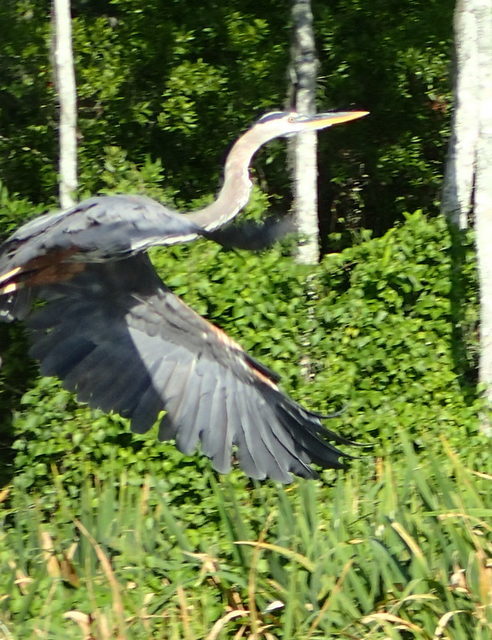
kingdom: Animalia
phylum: Chordata
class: Aves
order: Pelecaniformes
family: Ardeidae
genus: Ardea
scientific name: Ardea herodias
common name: Great blue heron
